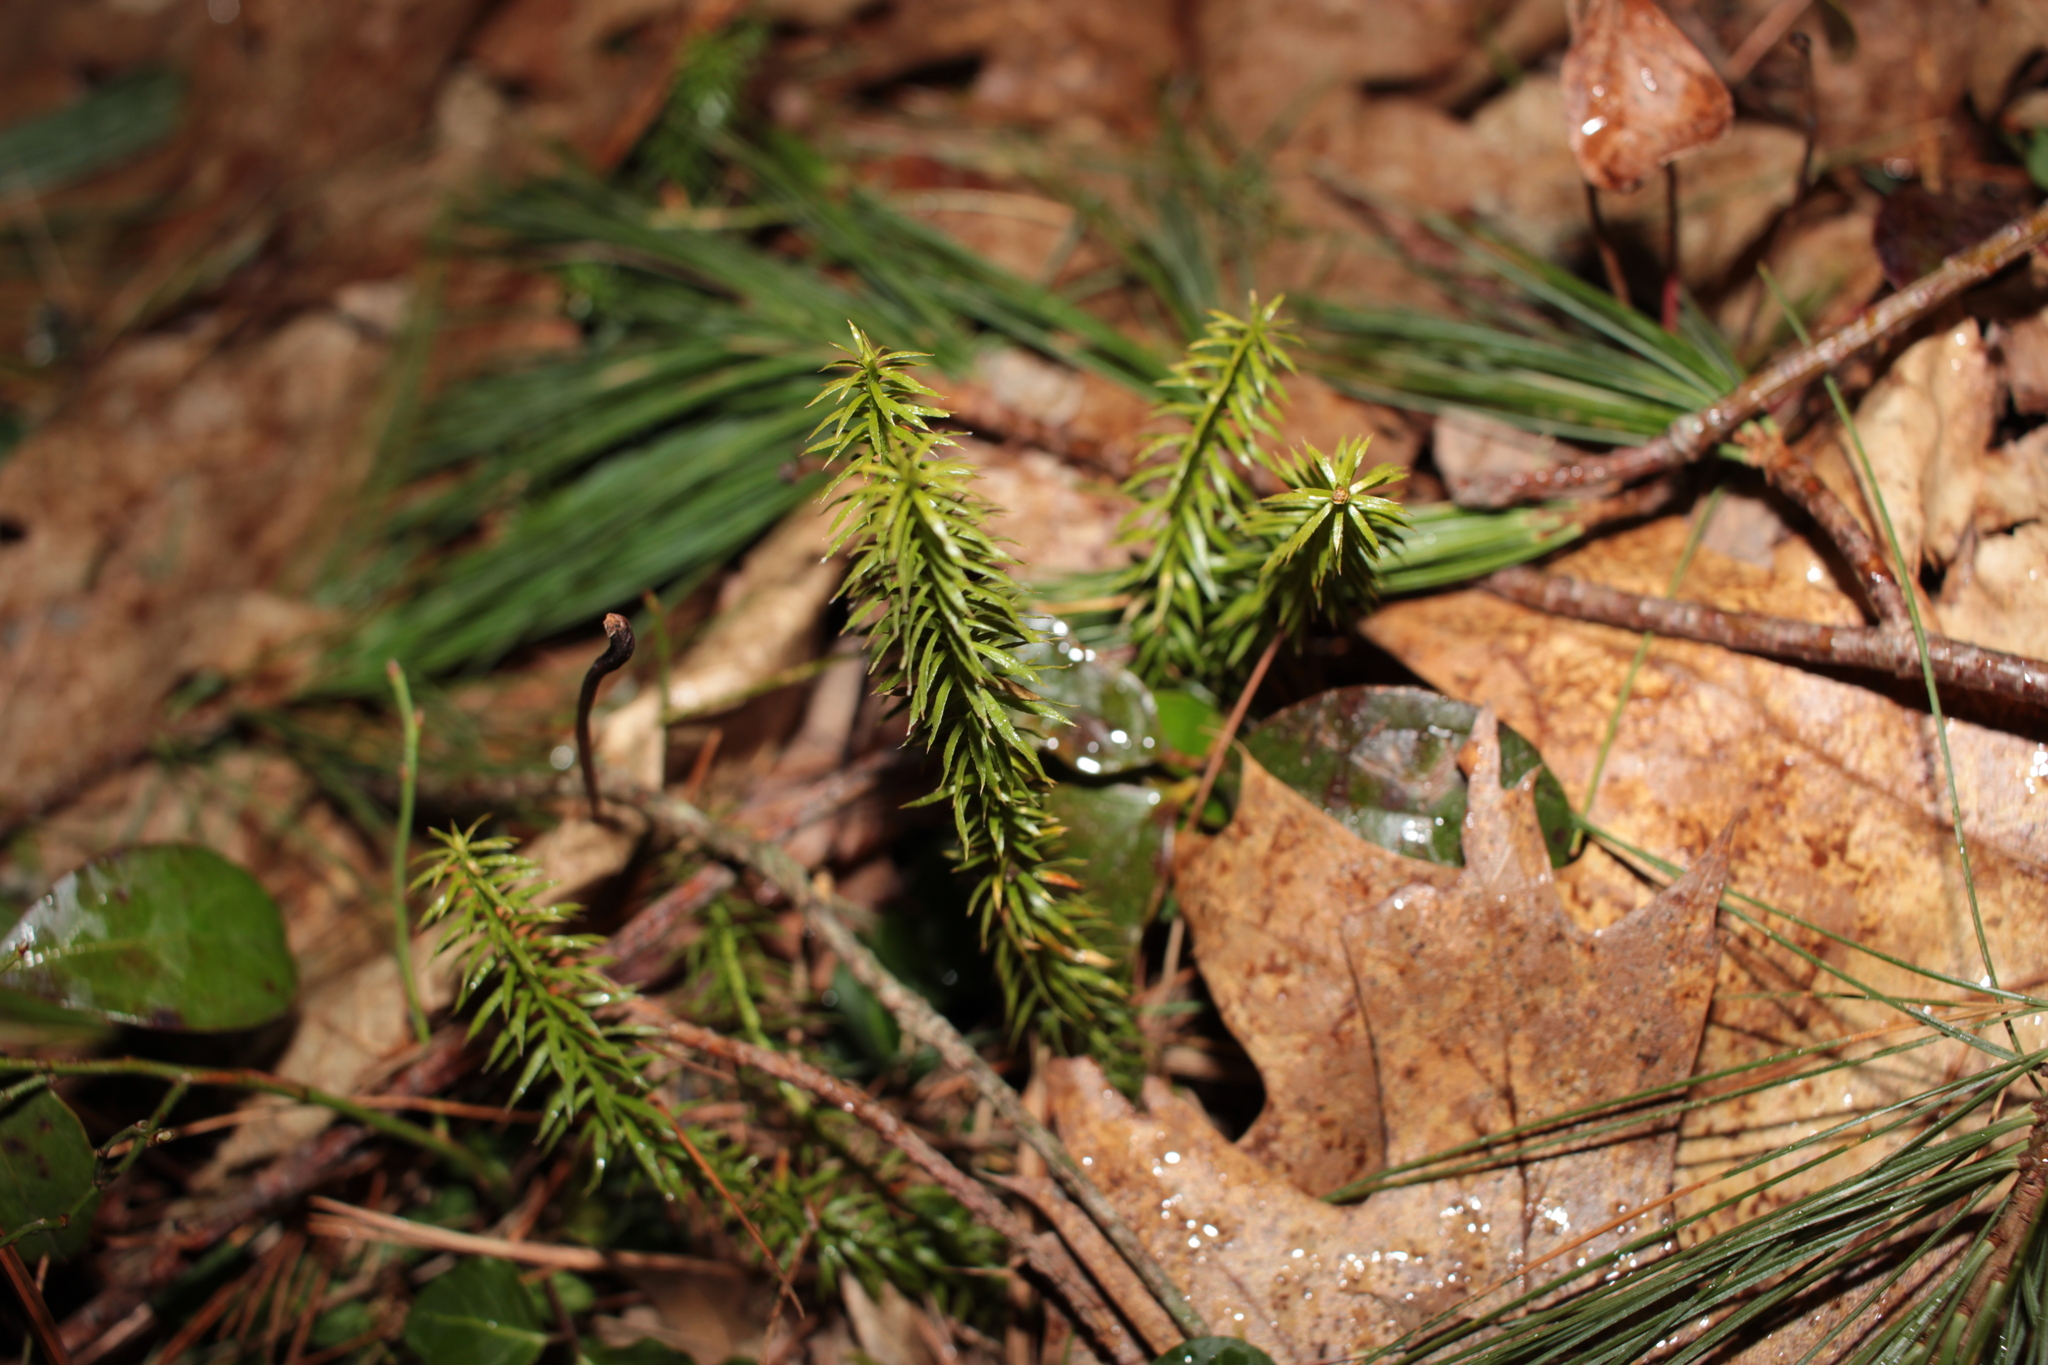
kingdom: Plantae
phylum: Tracheophyta
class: Lycopodiopsida
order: Lycopodiales
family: Lycopodiaceae
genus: Spinulum
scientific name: Spinulum annotinum
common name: Interrupted club-moss
